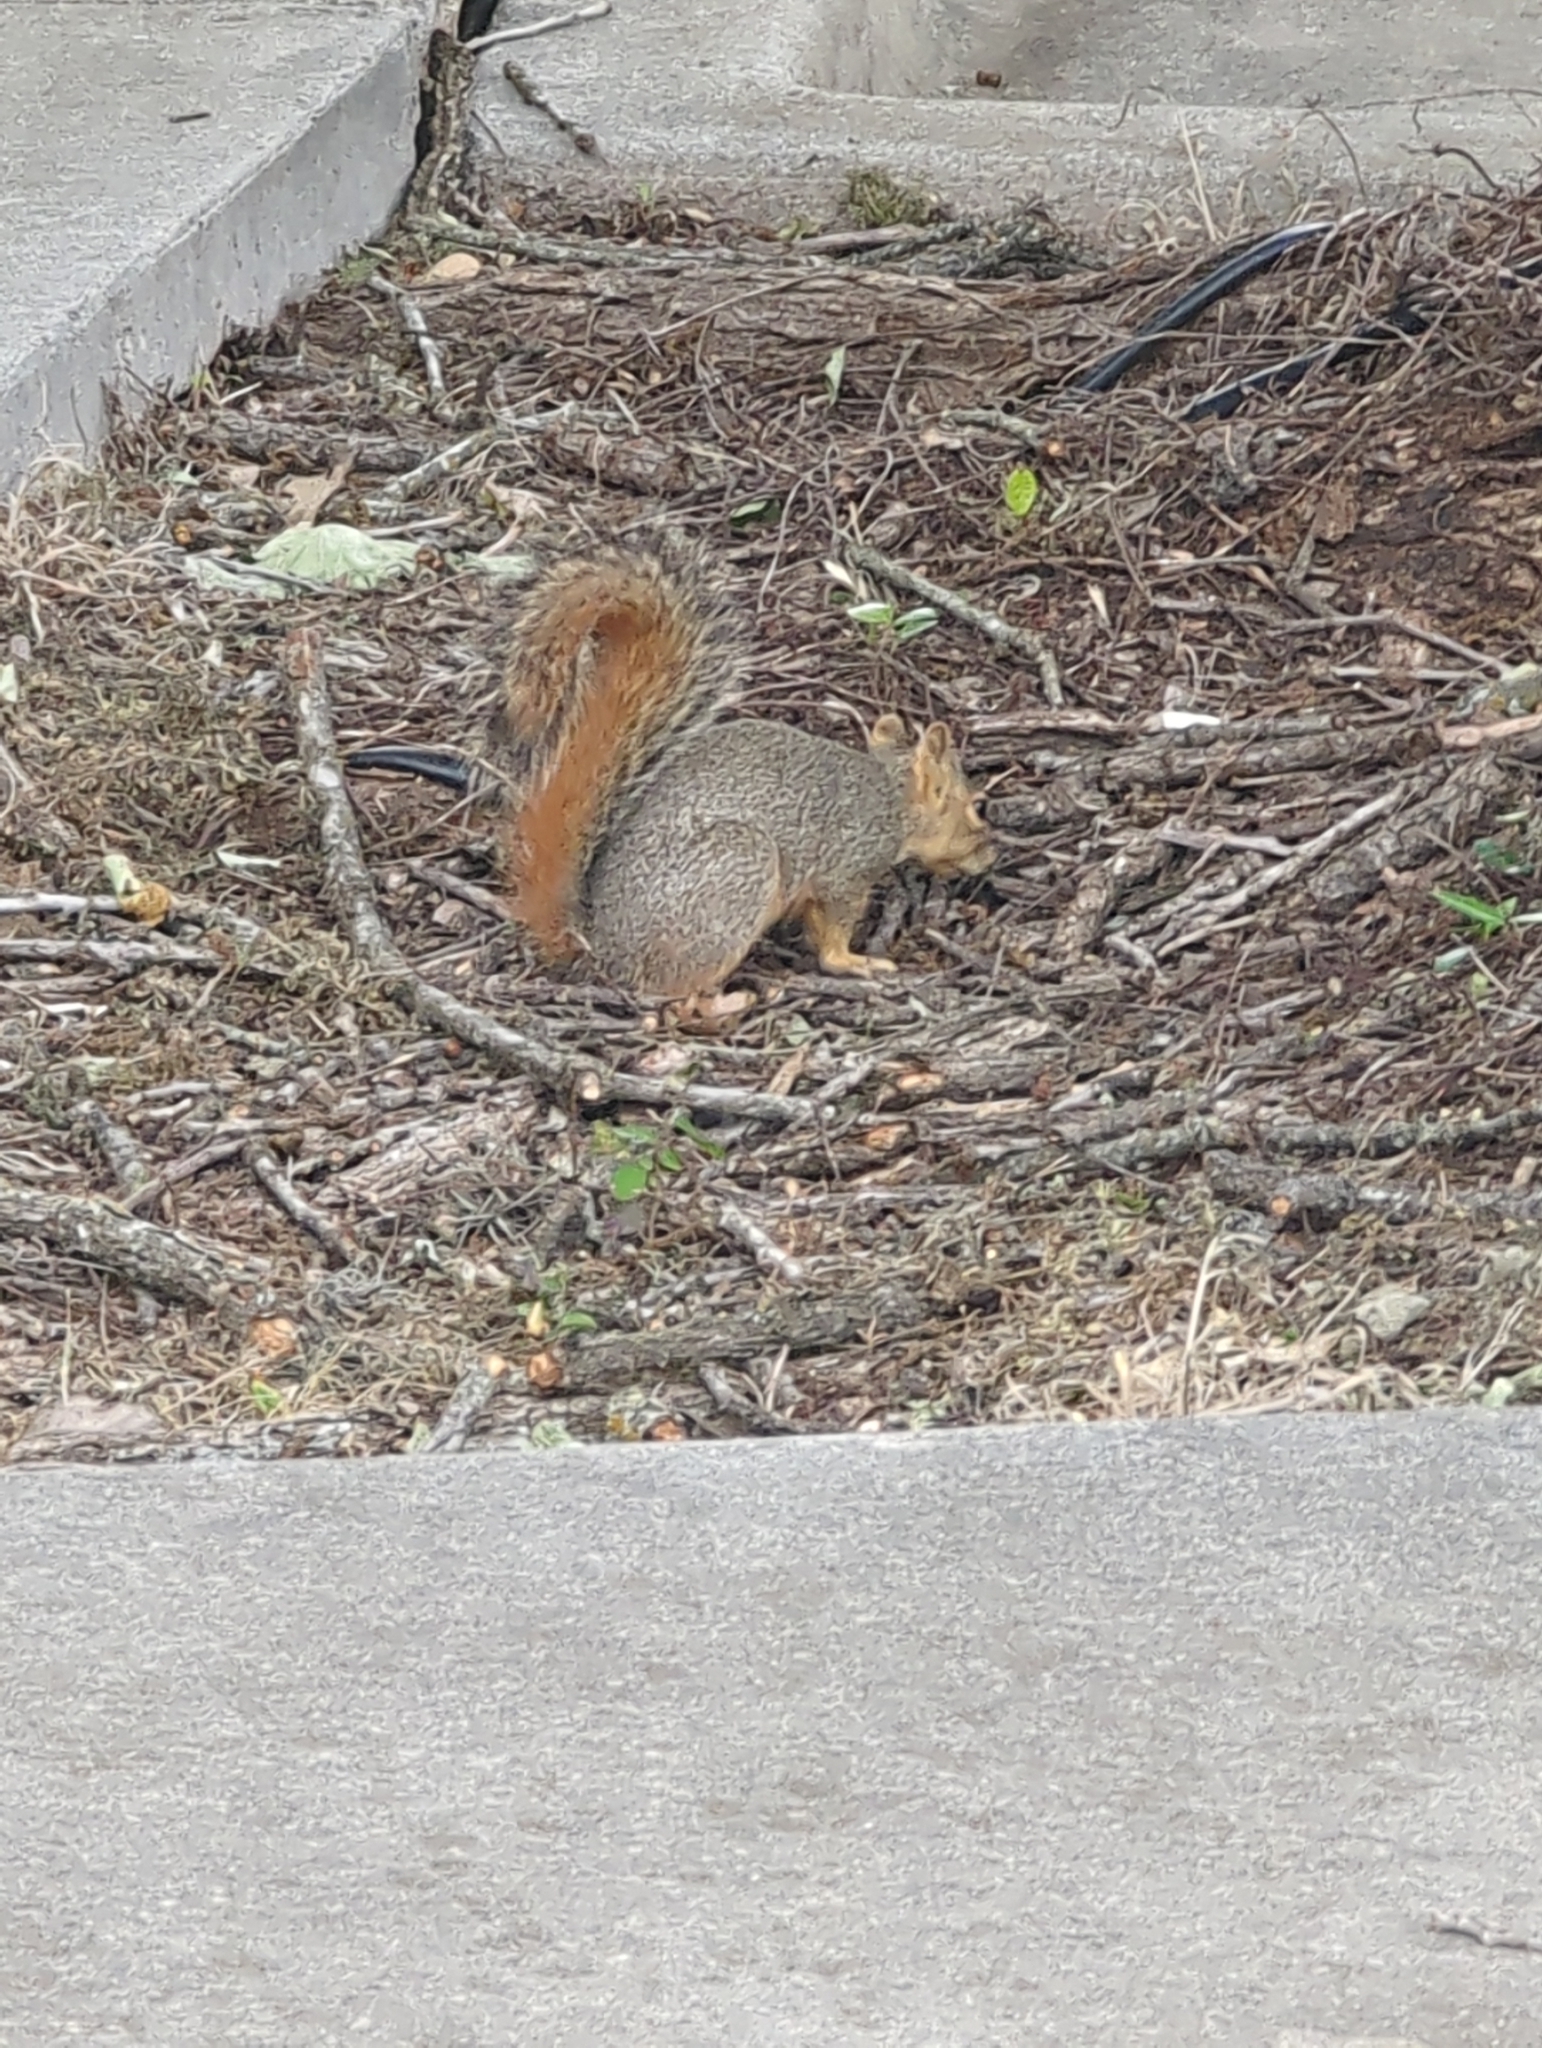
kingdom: Animalia
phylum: Chordata
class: Mammalia
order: Rodentia
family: Sciuridae
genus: Sciurus
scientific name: Sciurus niger
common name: Fox squirrel
